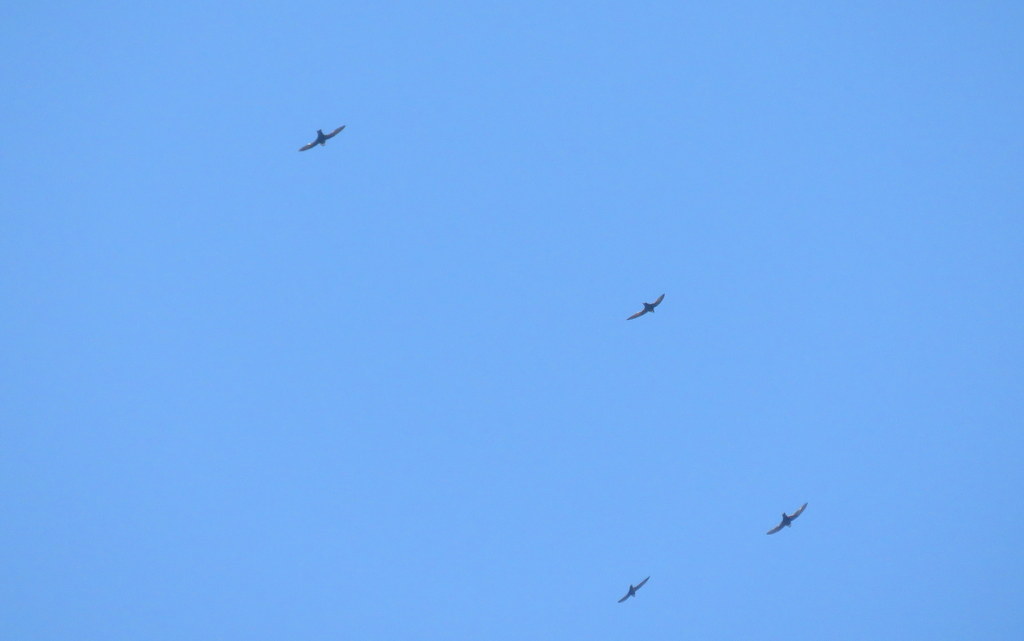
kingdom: Animalia
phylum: Chordata
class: Aves
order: Apodiformes
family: Apodidae
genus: Streptoprocne
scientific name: Streptoprocne zonaris
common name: White-collared swift
